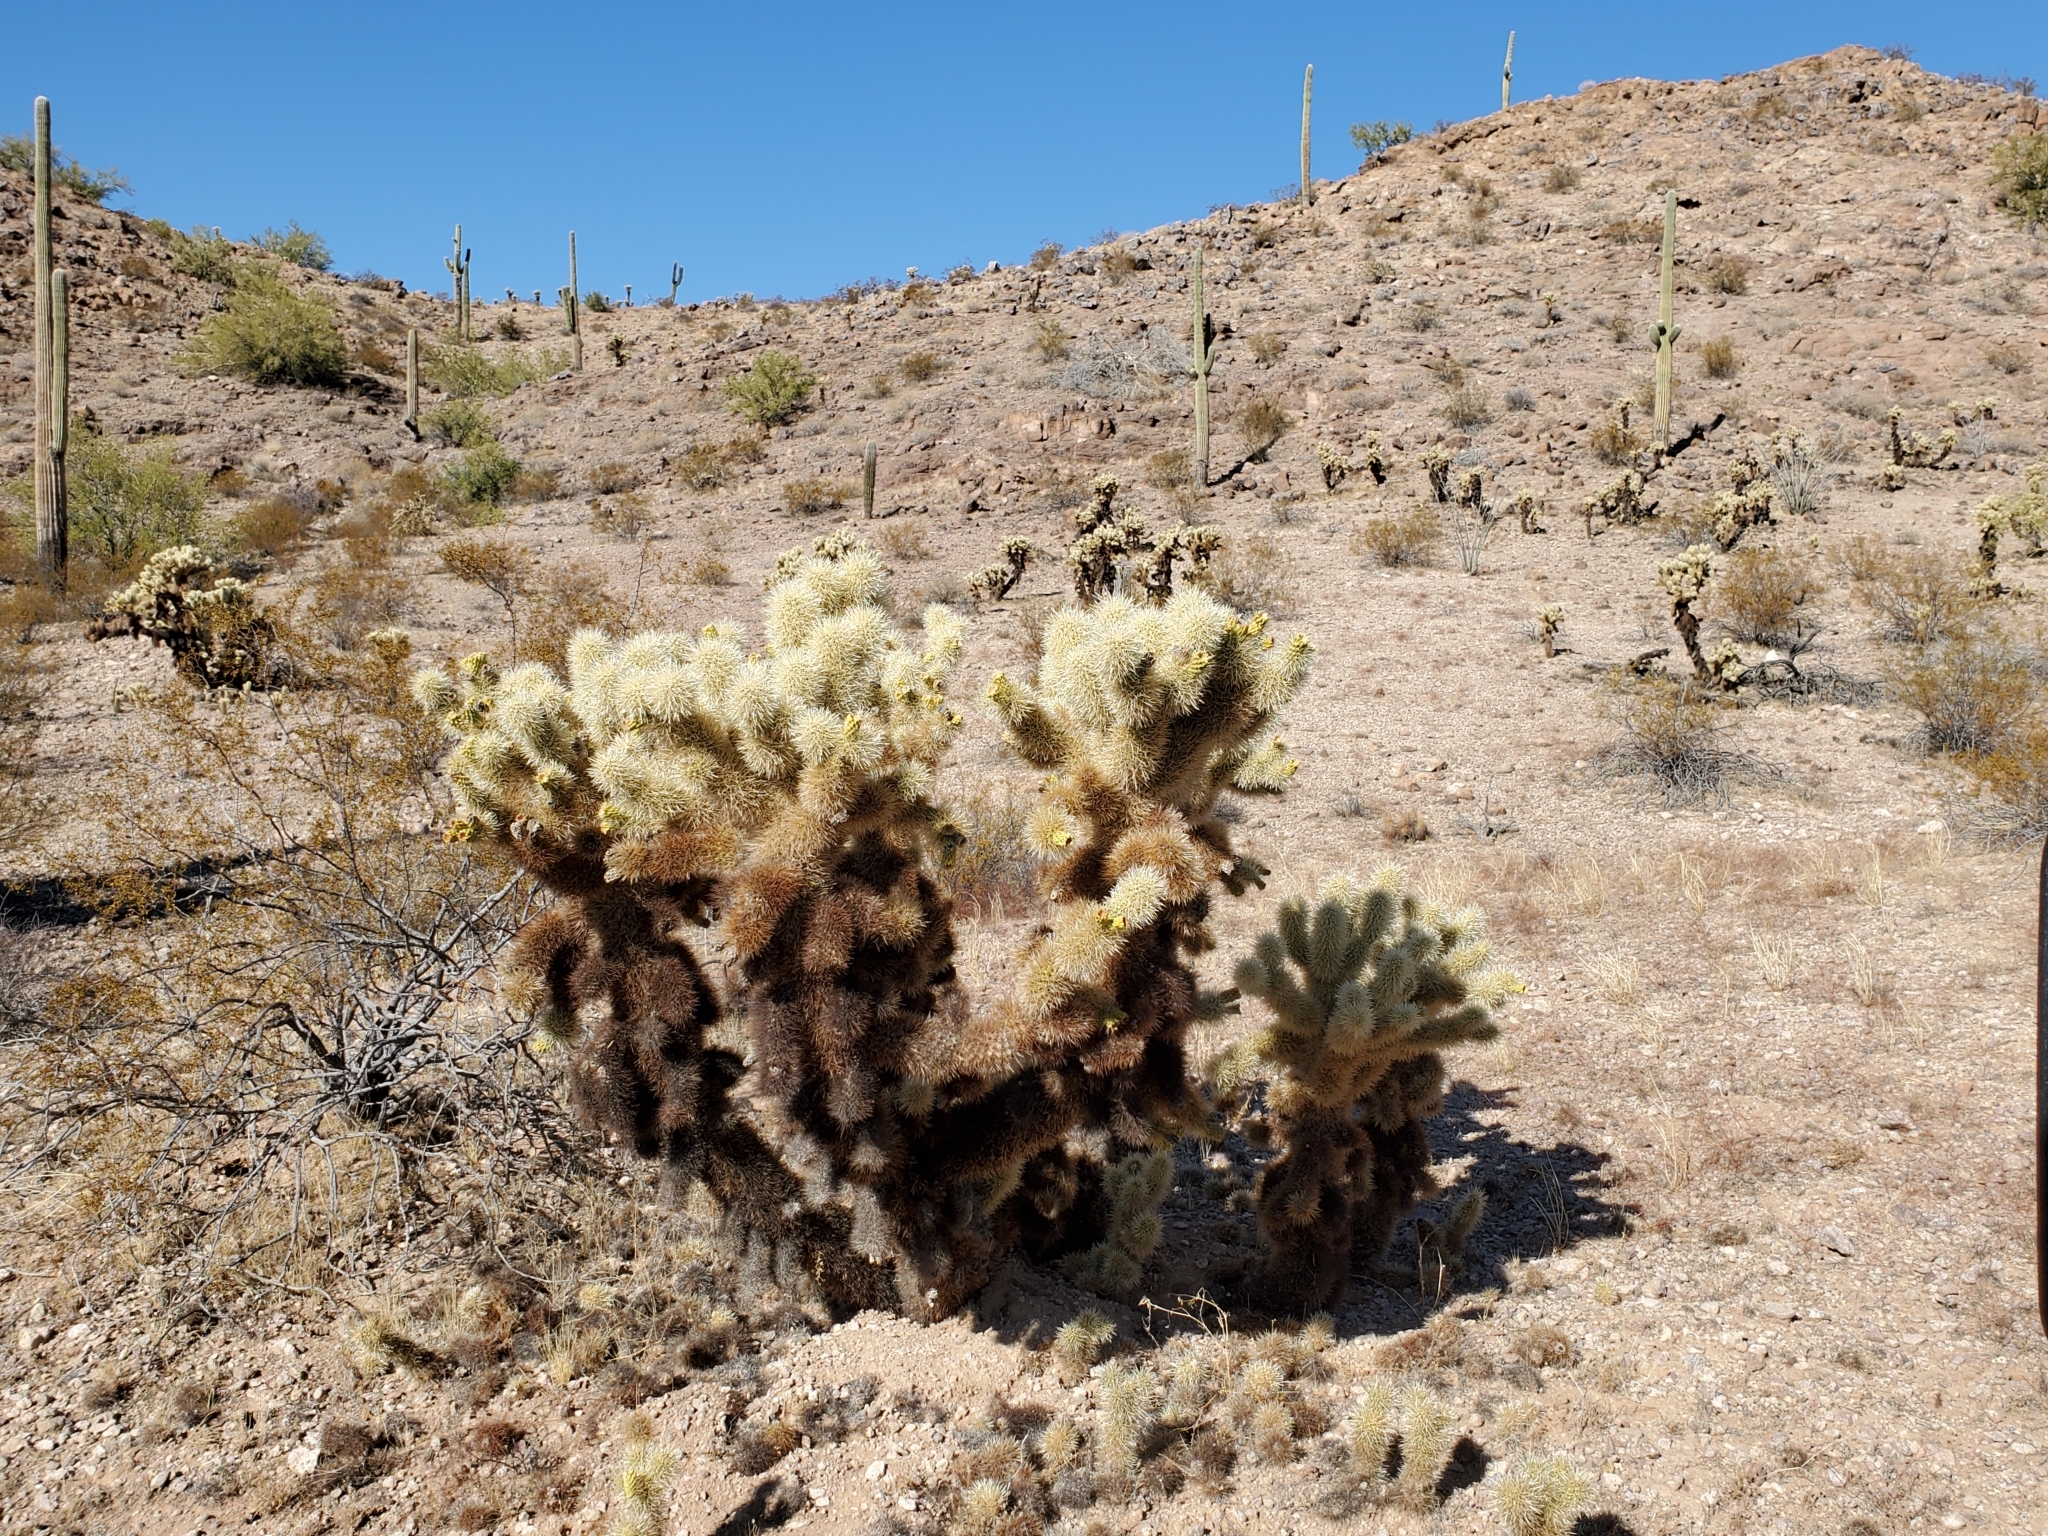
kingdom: Plantae
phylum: Tracheophyta
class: Magnoliopsida
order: Caryophyllales
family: Cactaceae
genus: Cylindropuntia
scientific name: Cylindropuntia fosbergii
